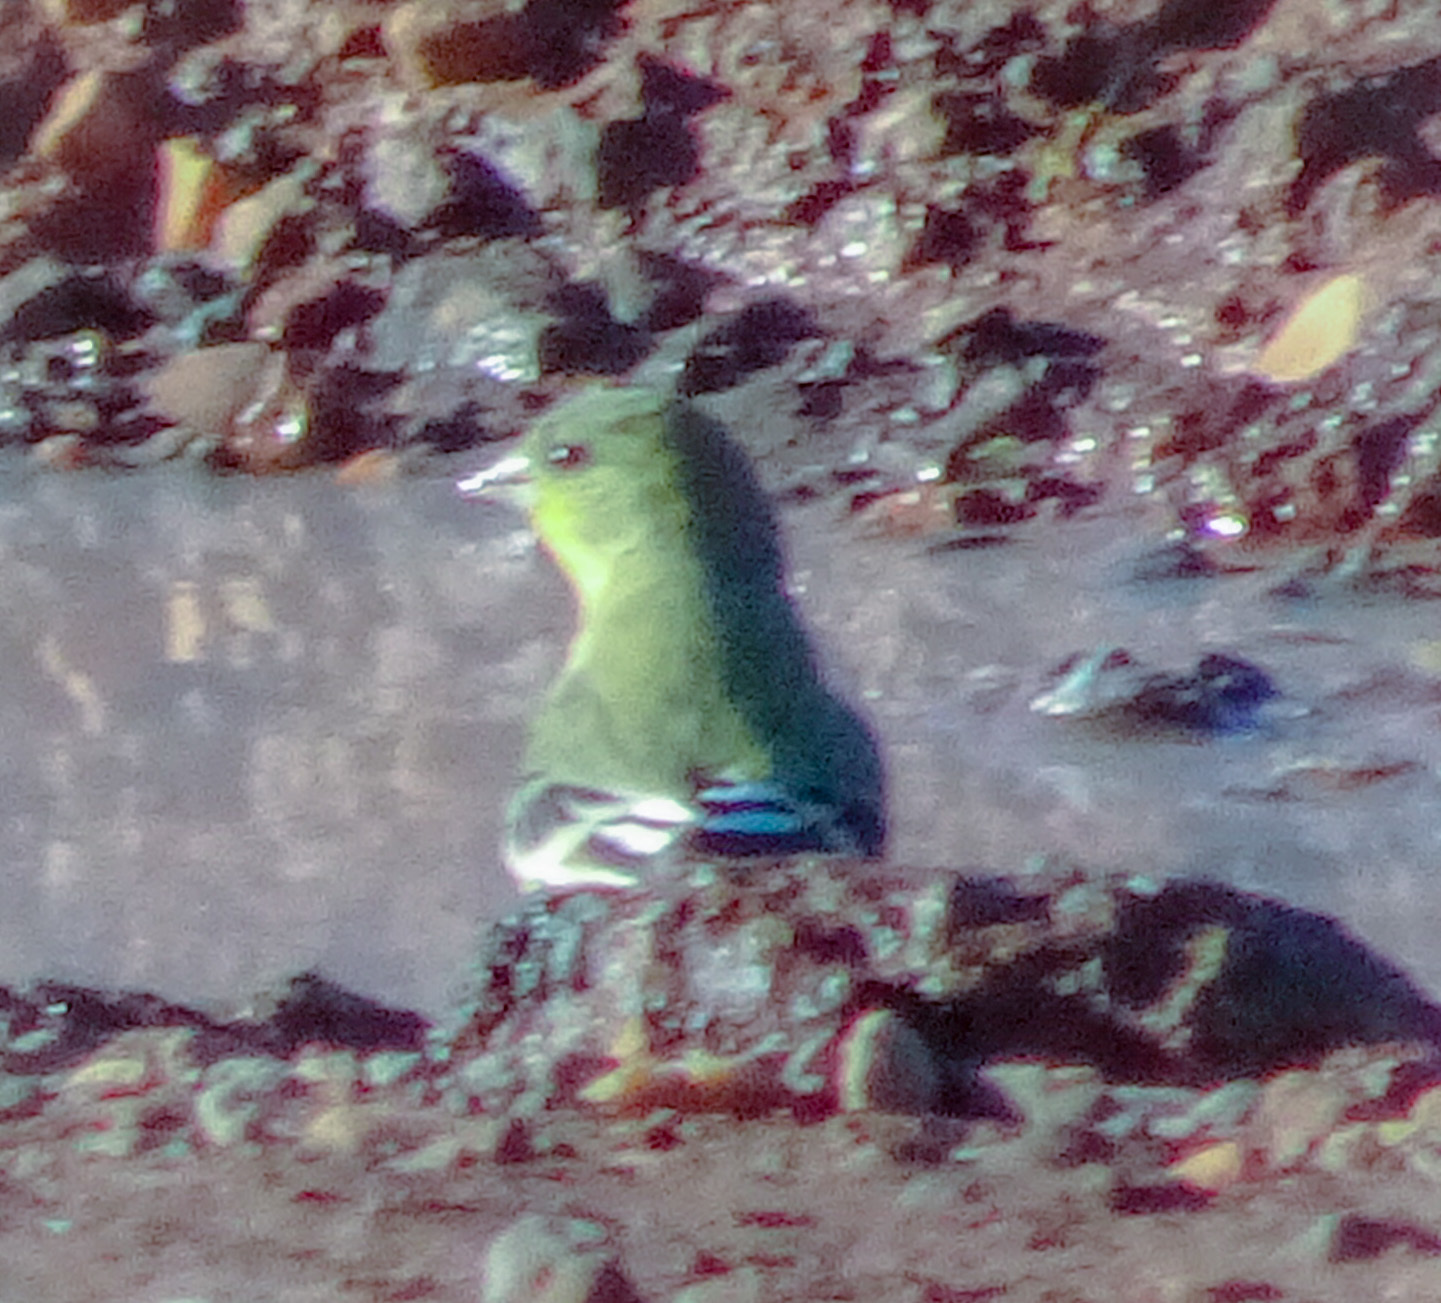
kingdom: Animalia
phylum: Chordata
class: Aves
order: Passeriformes
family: Fringillidae
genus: Spinus
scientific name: Spinus psaltria
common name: Lesser goldfinch
